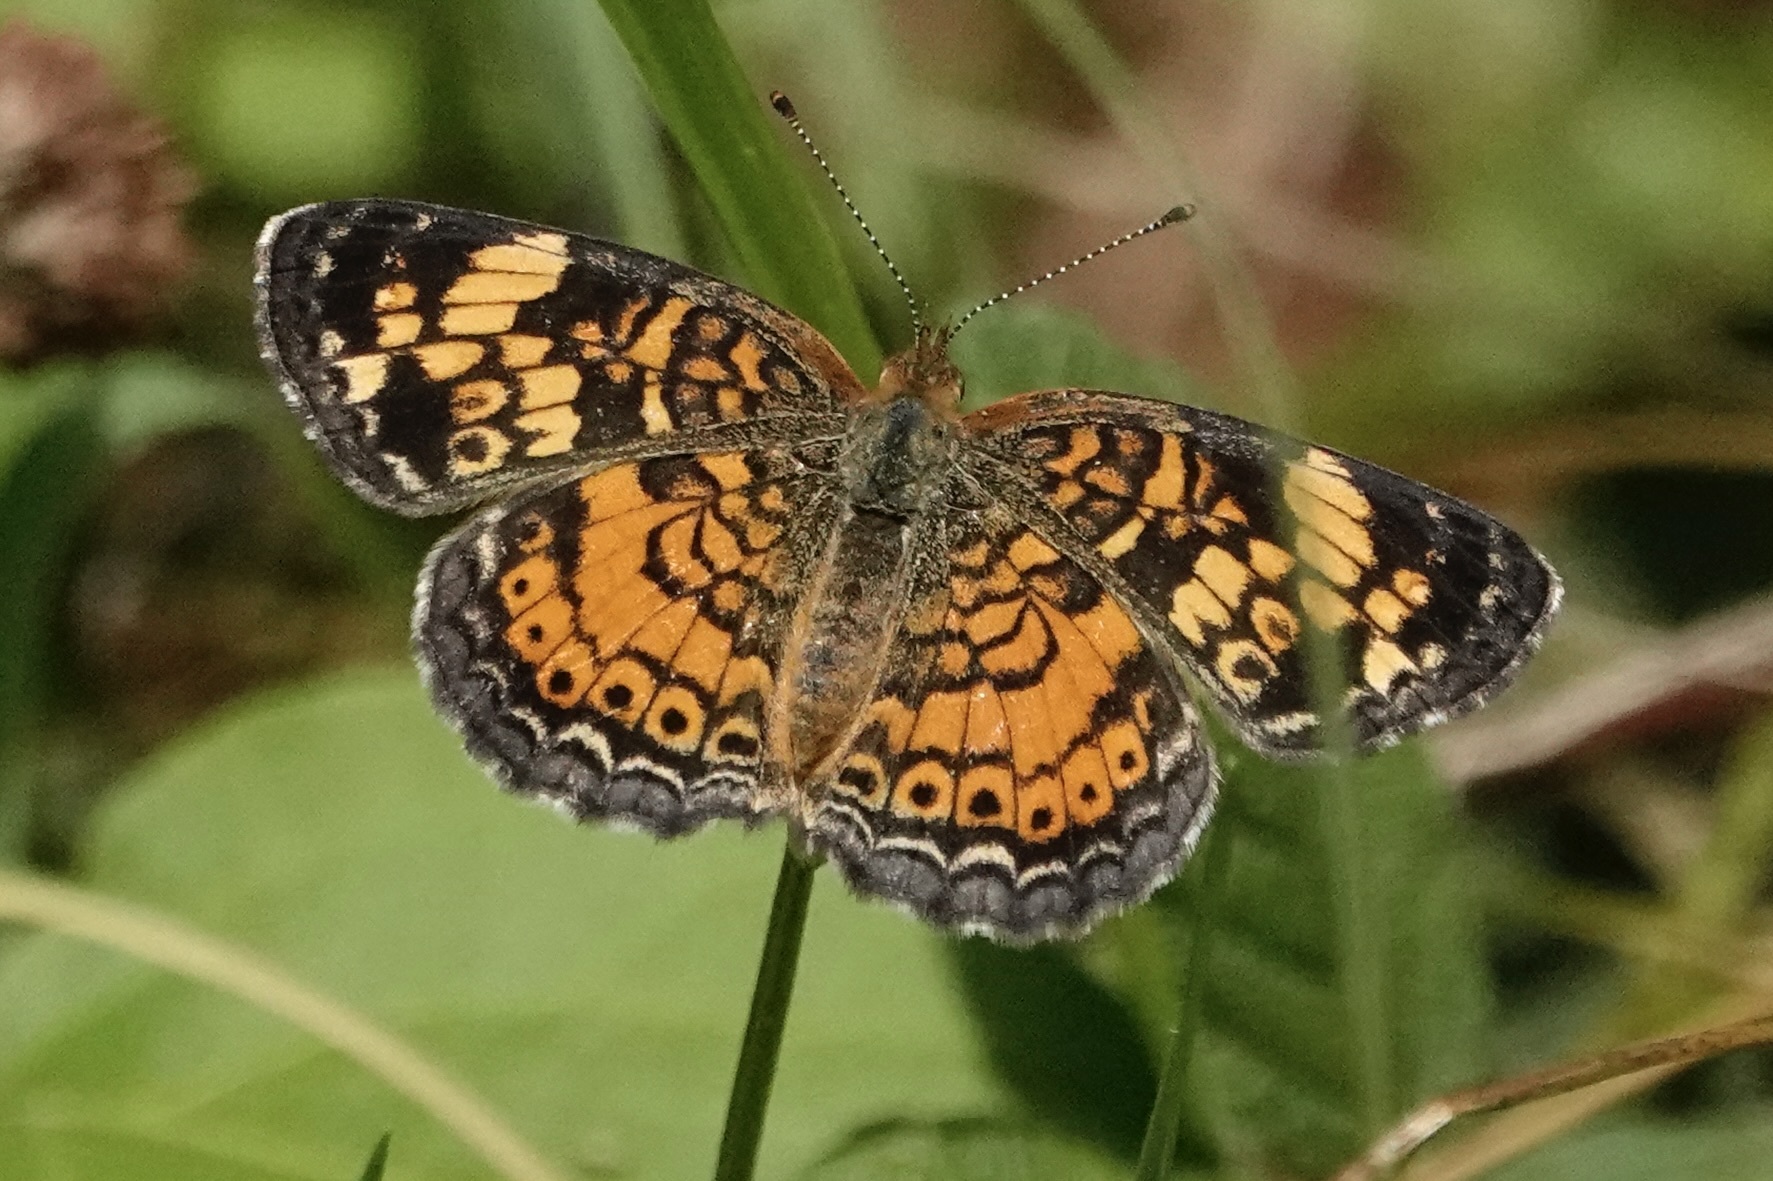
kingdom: Animalia
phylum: Arthropoda
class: Insecta
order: Lepidoptera
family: Nymphalidae
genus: Phyciodes
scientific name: Phyciodes tharos
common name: Pearl crescent
